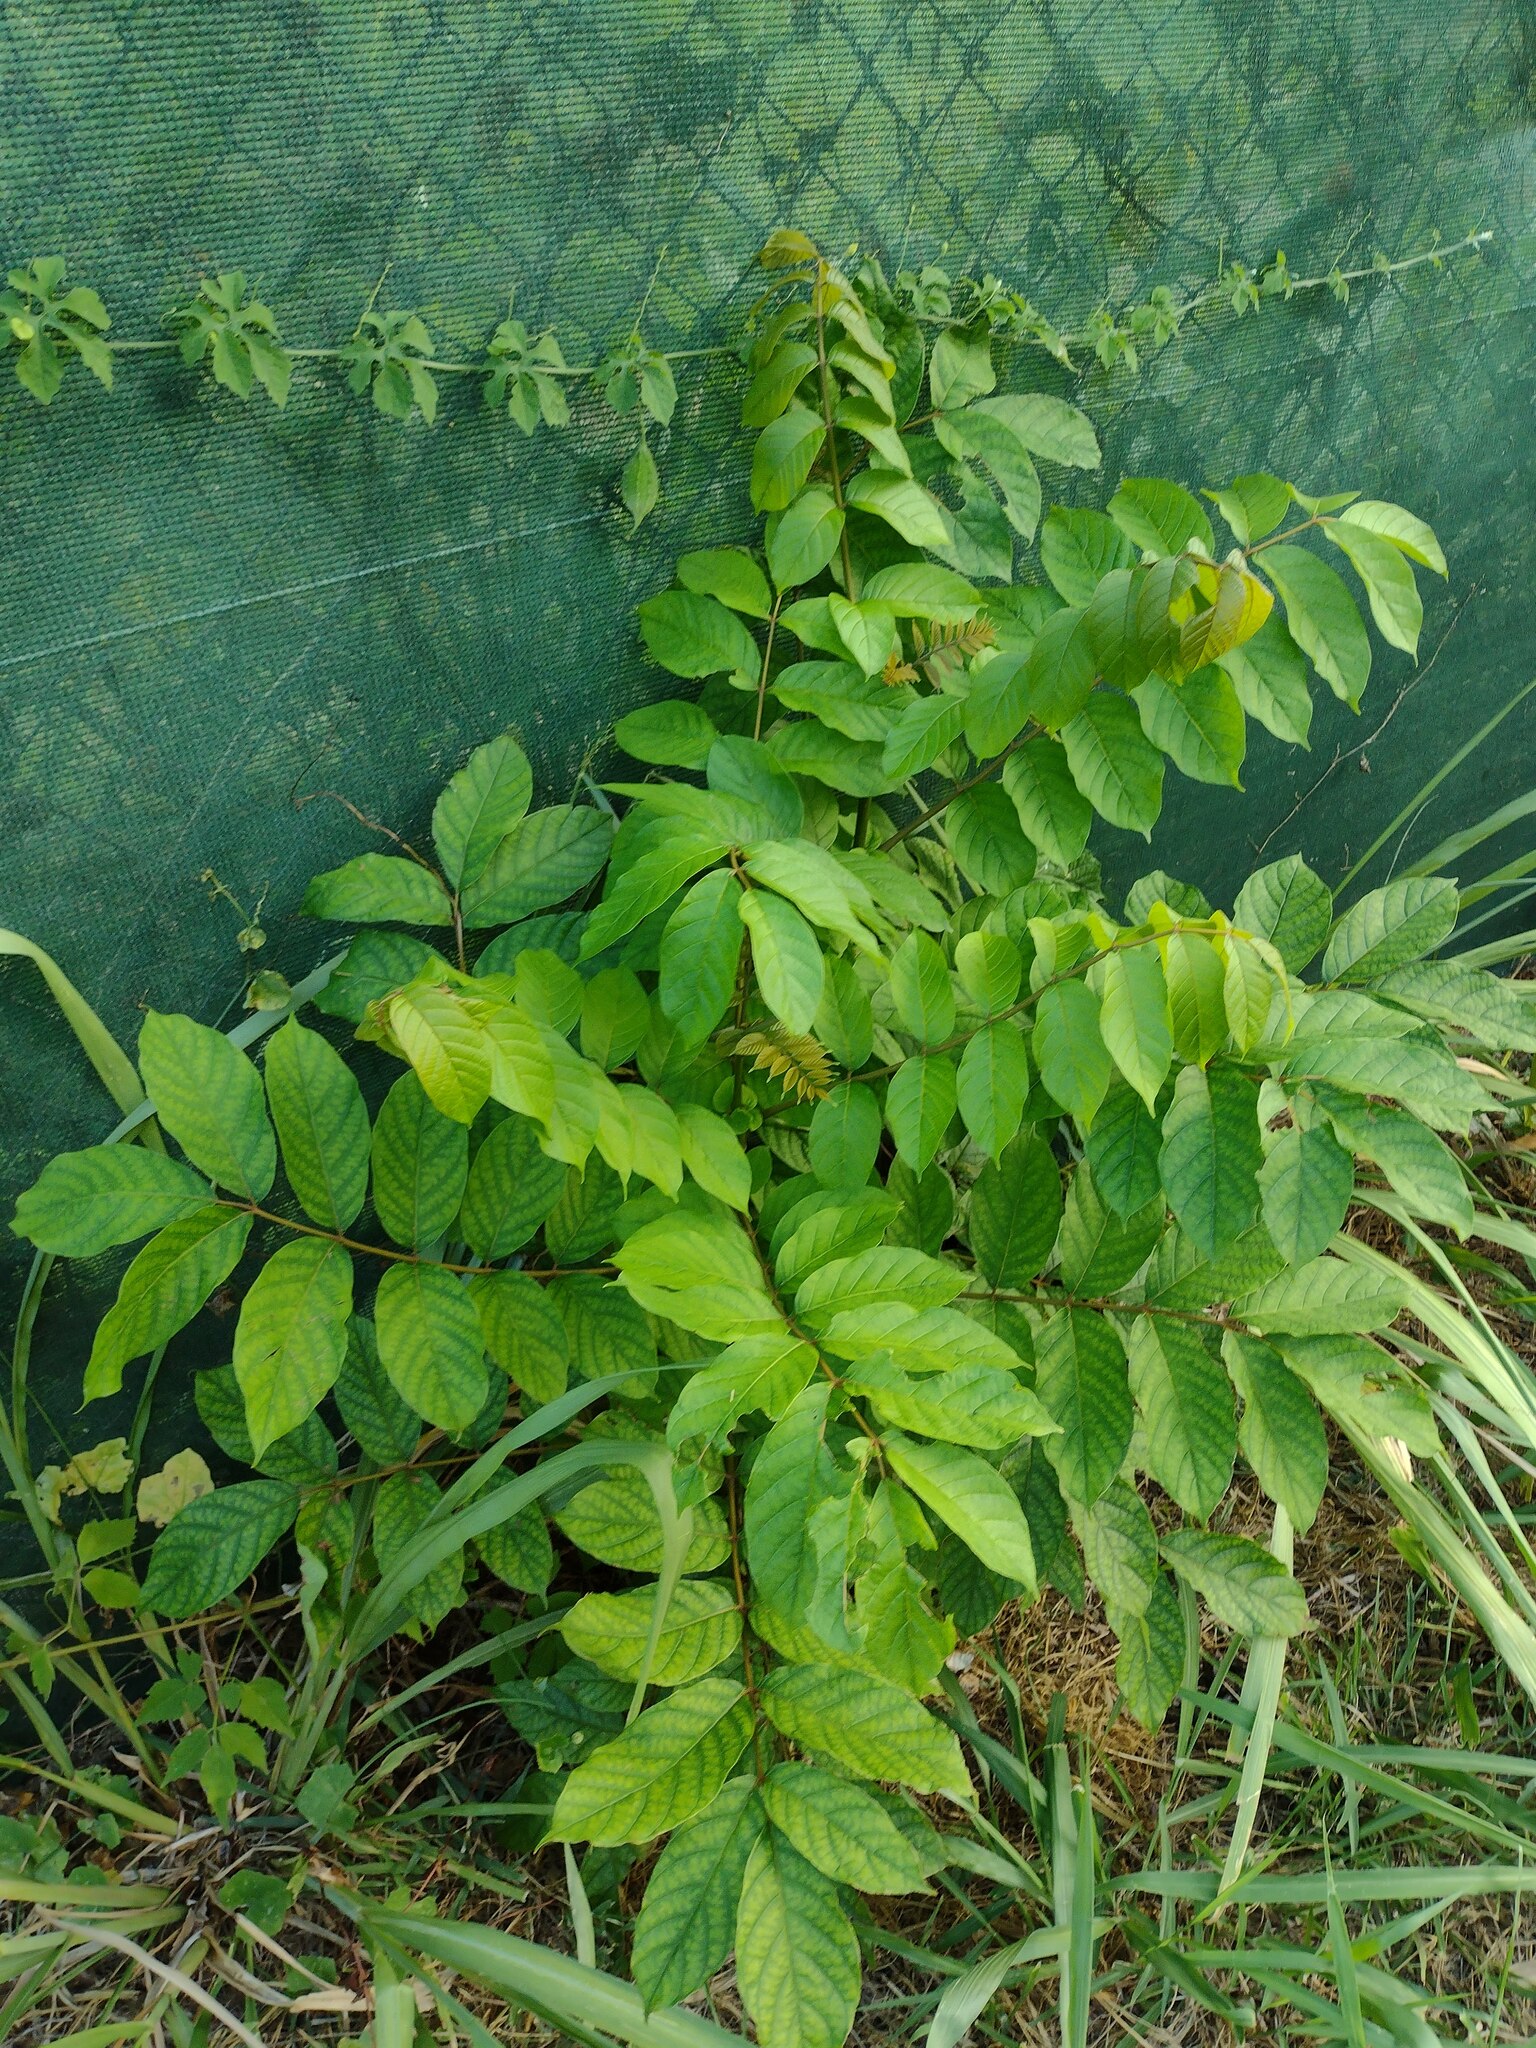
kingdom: Plantae
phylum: Tracheophyta
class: Magnoliopsida
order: Lamiales
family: Bignoniaceae
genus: Spathodea
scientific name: Spathodea campanulata
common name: African tuliptree
